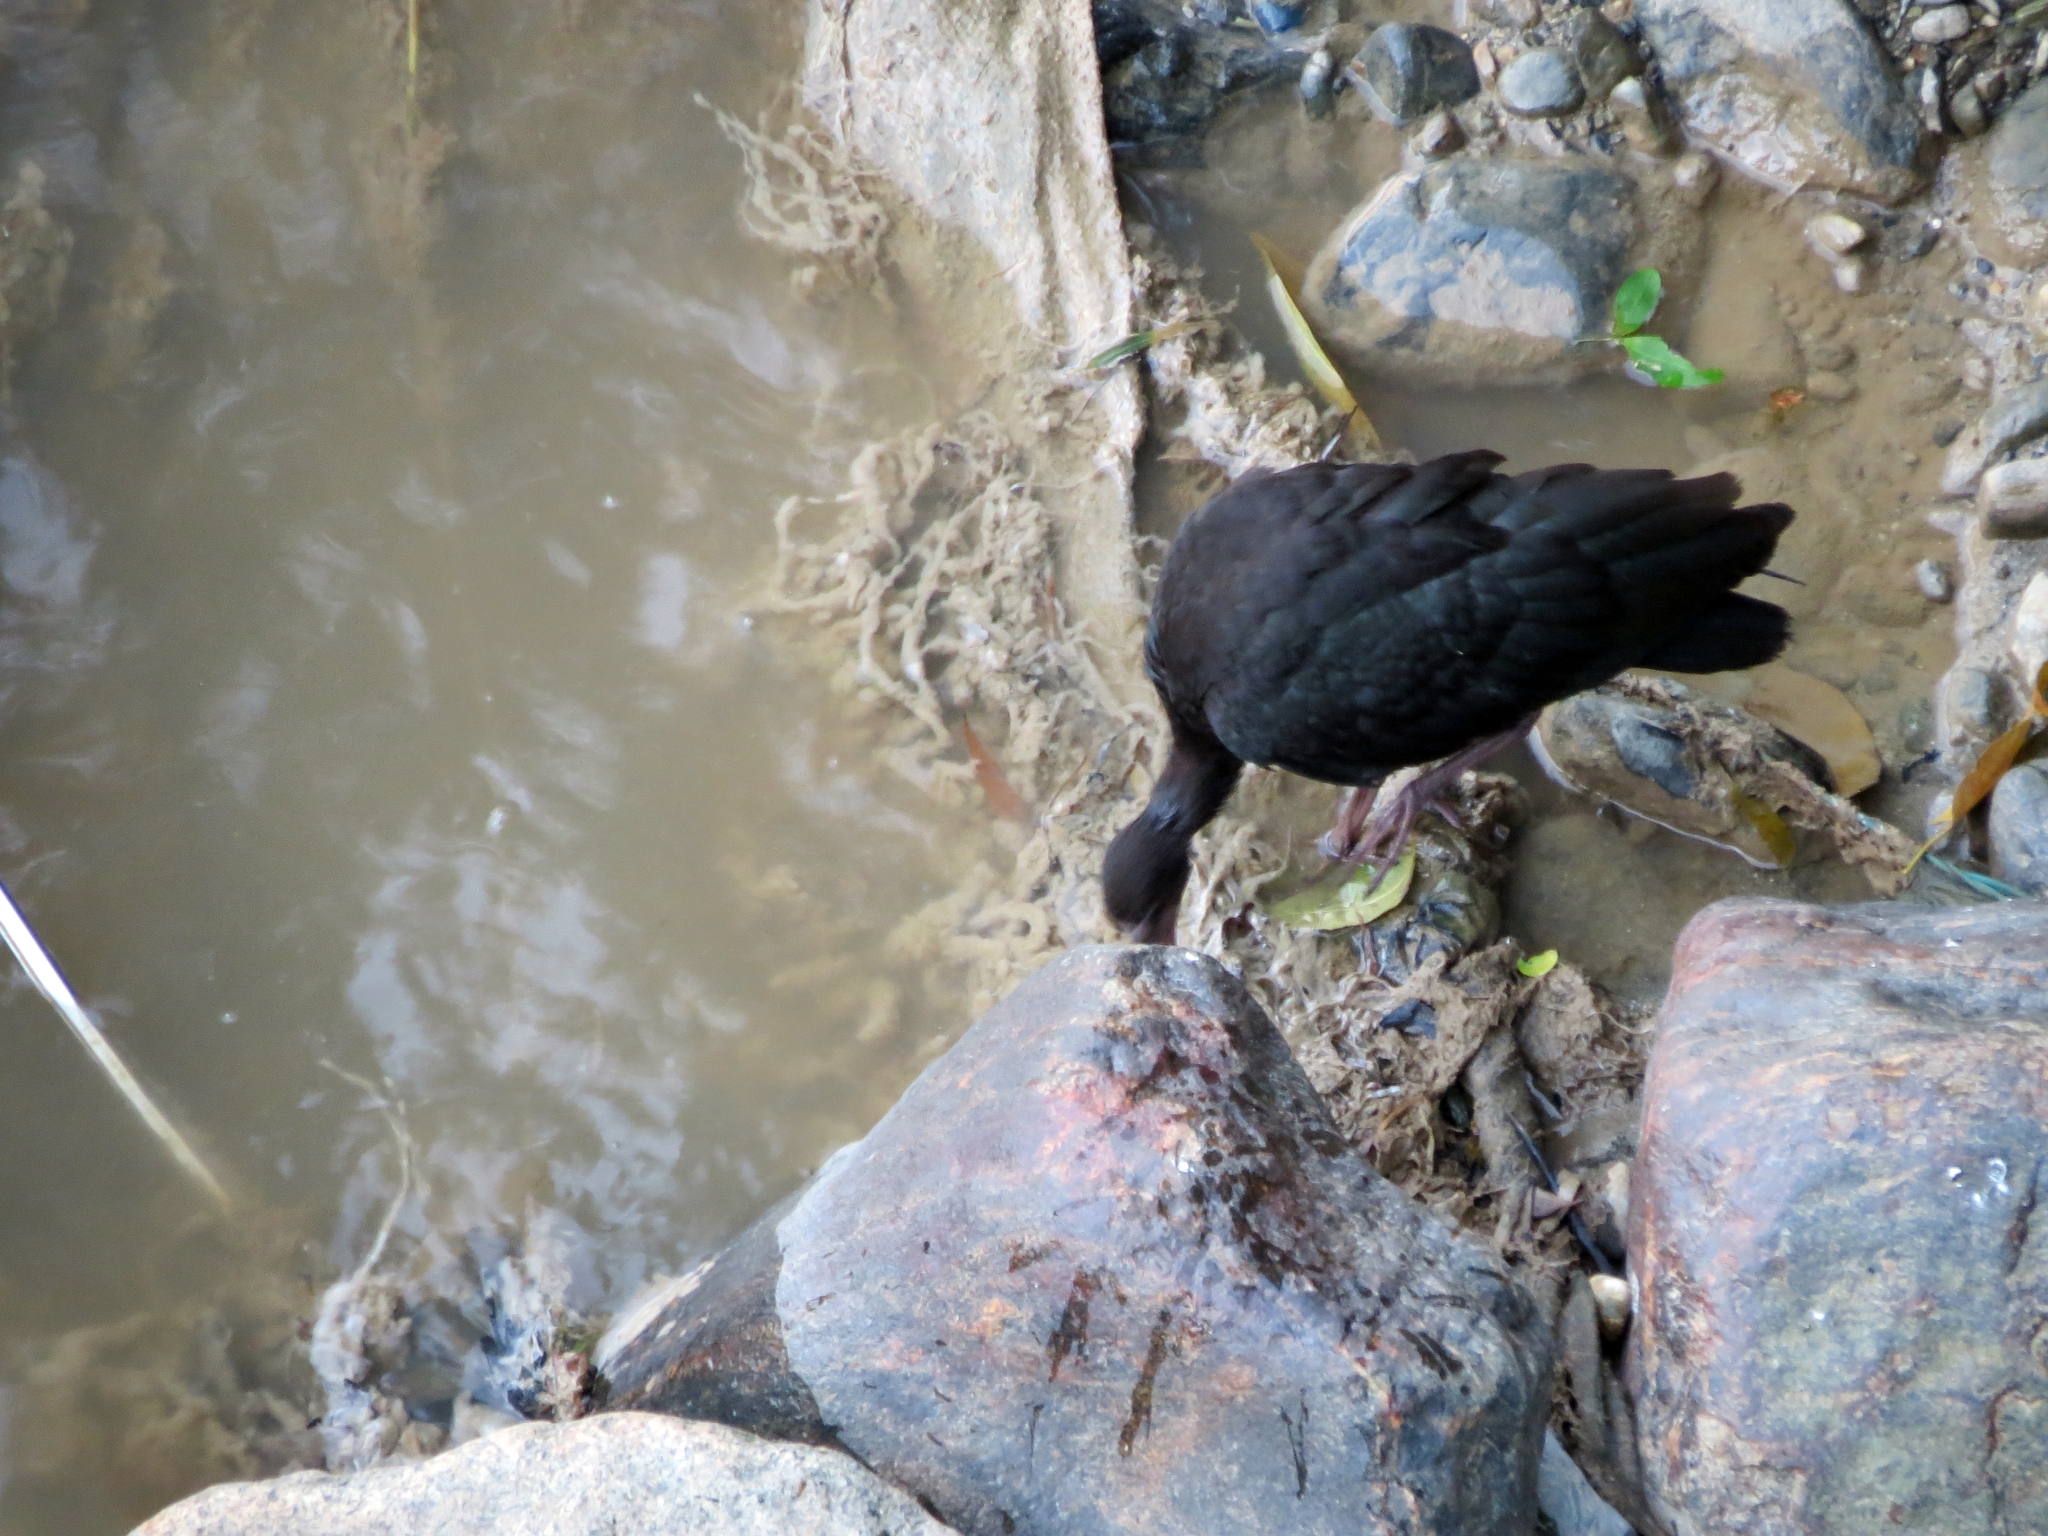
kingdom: Animalia
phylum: Chordata
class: Aves
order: Pelecaniformes
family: Threskiornithidae
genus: Phimosus
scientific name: Phimosus infuscatus
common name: Bare-faced ibis
